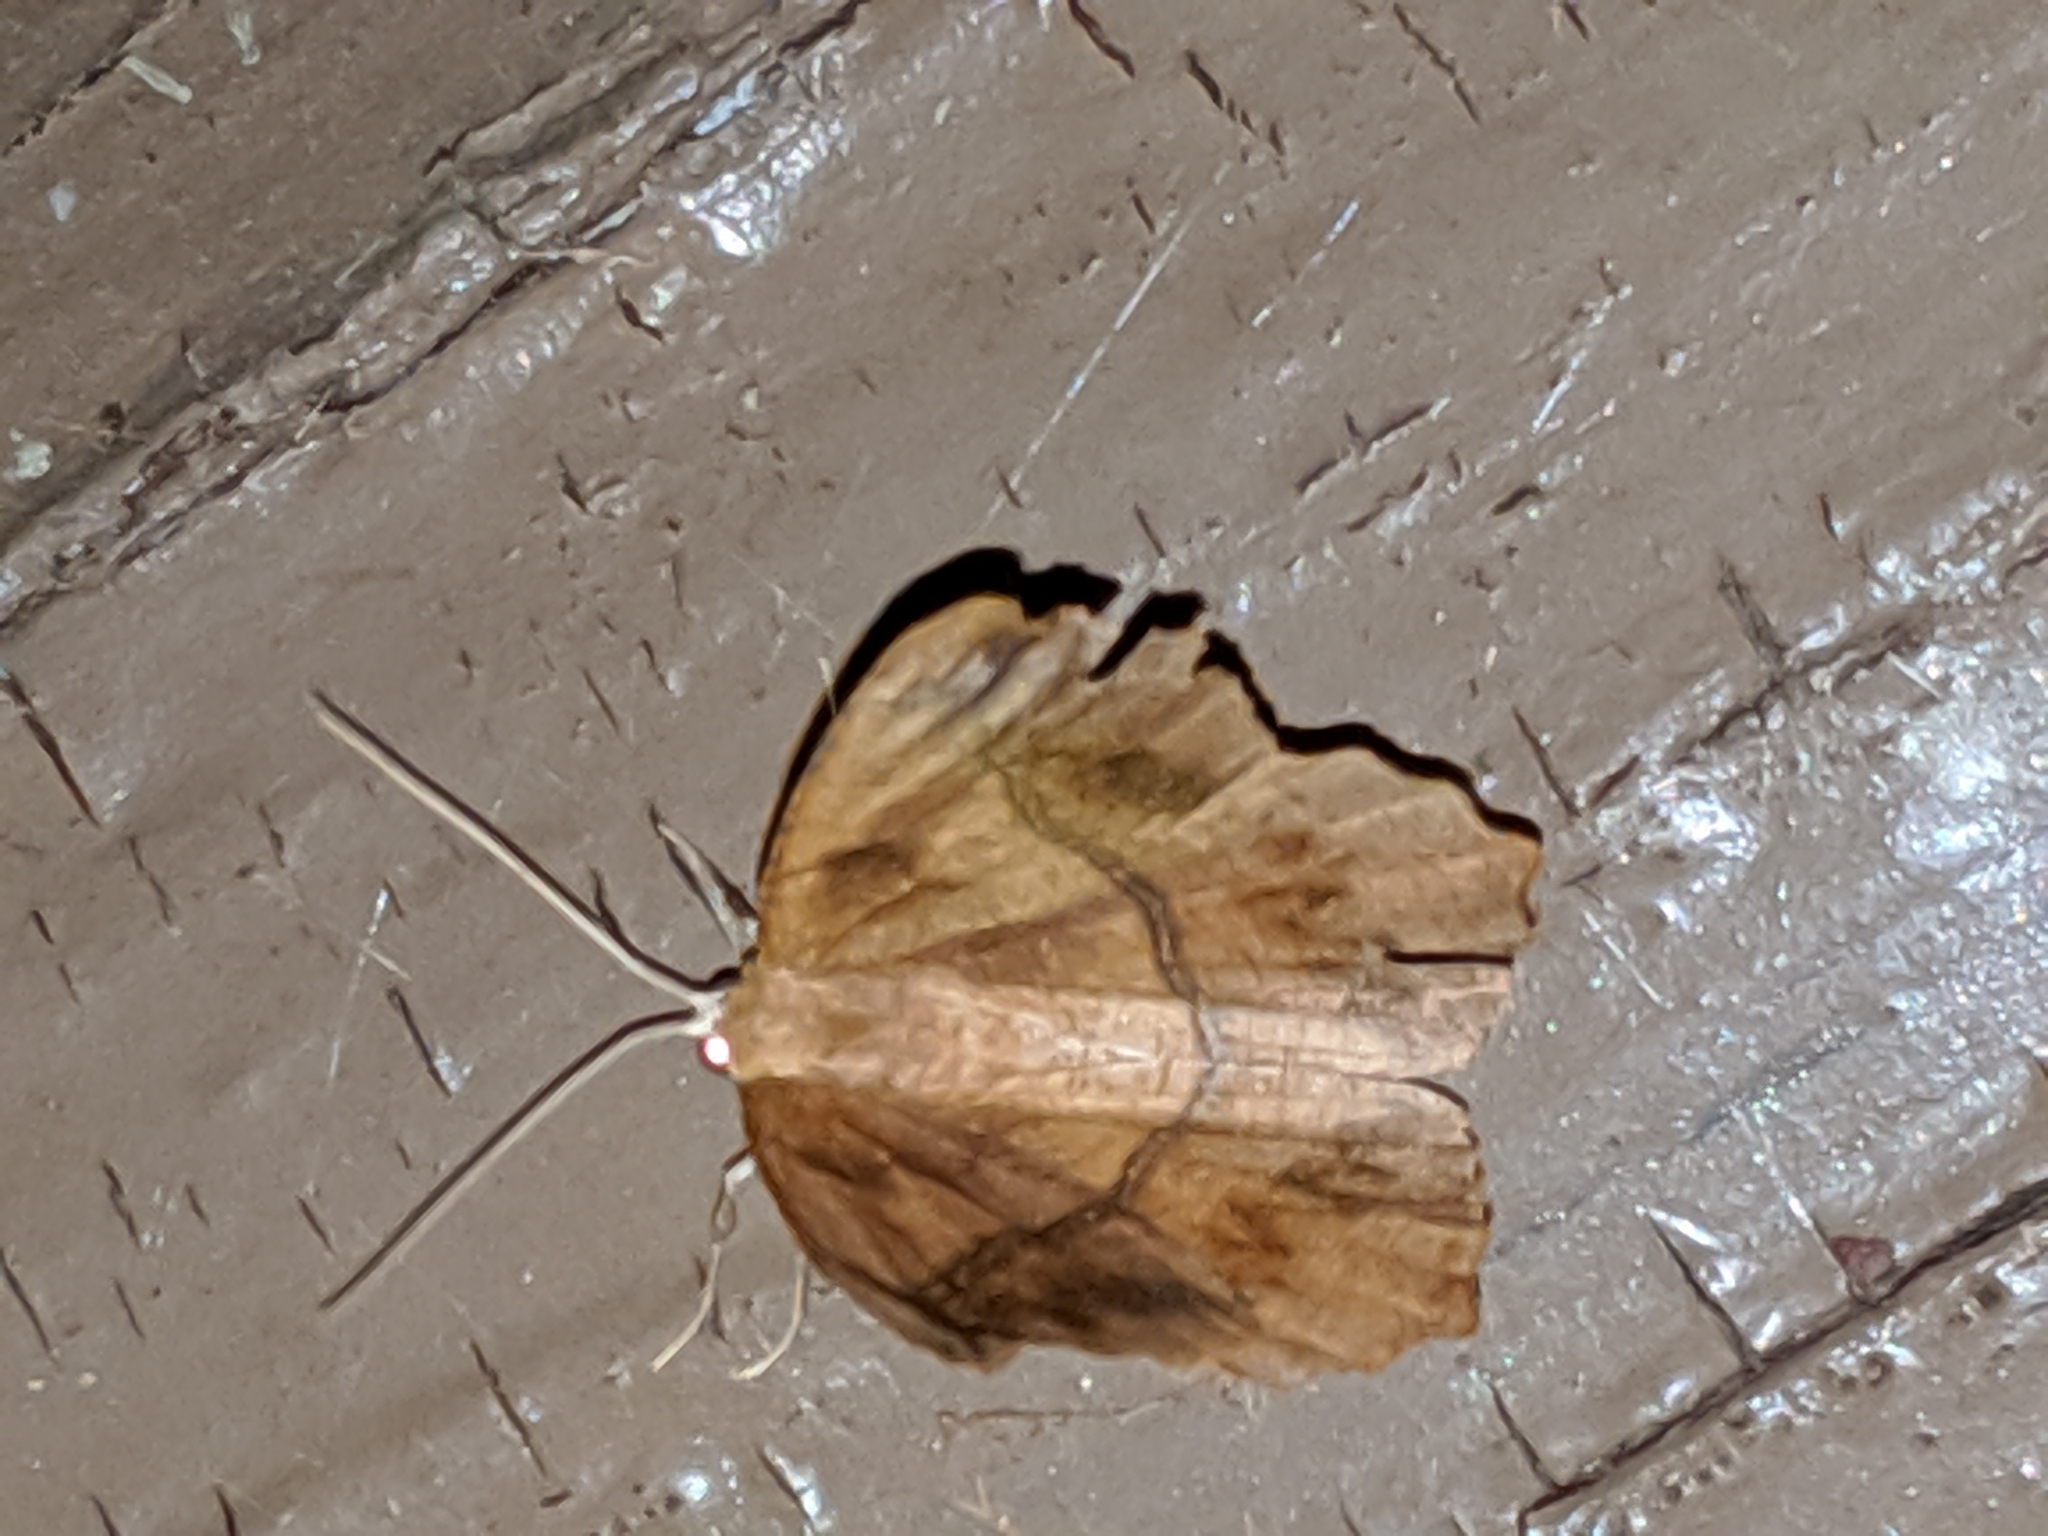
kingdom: Animalia
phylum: Arthropoda
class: Insecta
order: Lepidoptera
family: Geometridae
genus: Prochoerodes
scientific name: Prochoerodes lineola
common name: Large maple spanworm
